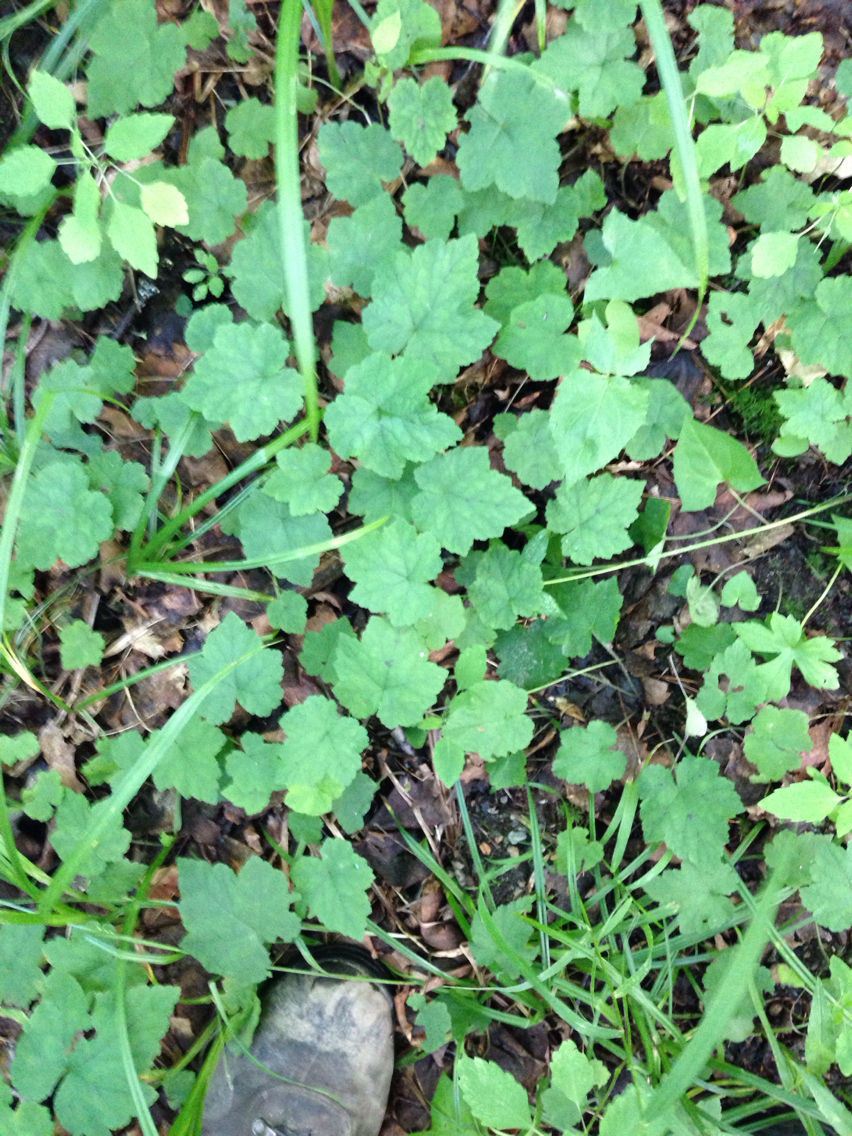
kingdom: Plantae
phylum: Tracheophyta
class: Magnoliopsida
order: Saxifragales
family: Saxifragaceae
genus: Tiarella
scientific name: Tiarella stolonifera
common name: Stoloniferous foamflower
